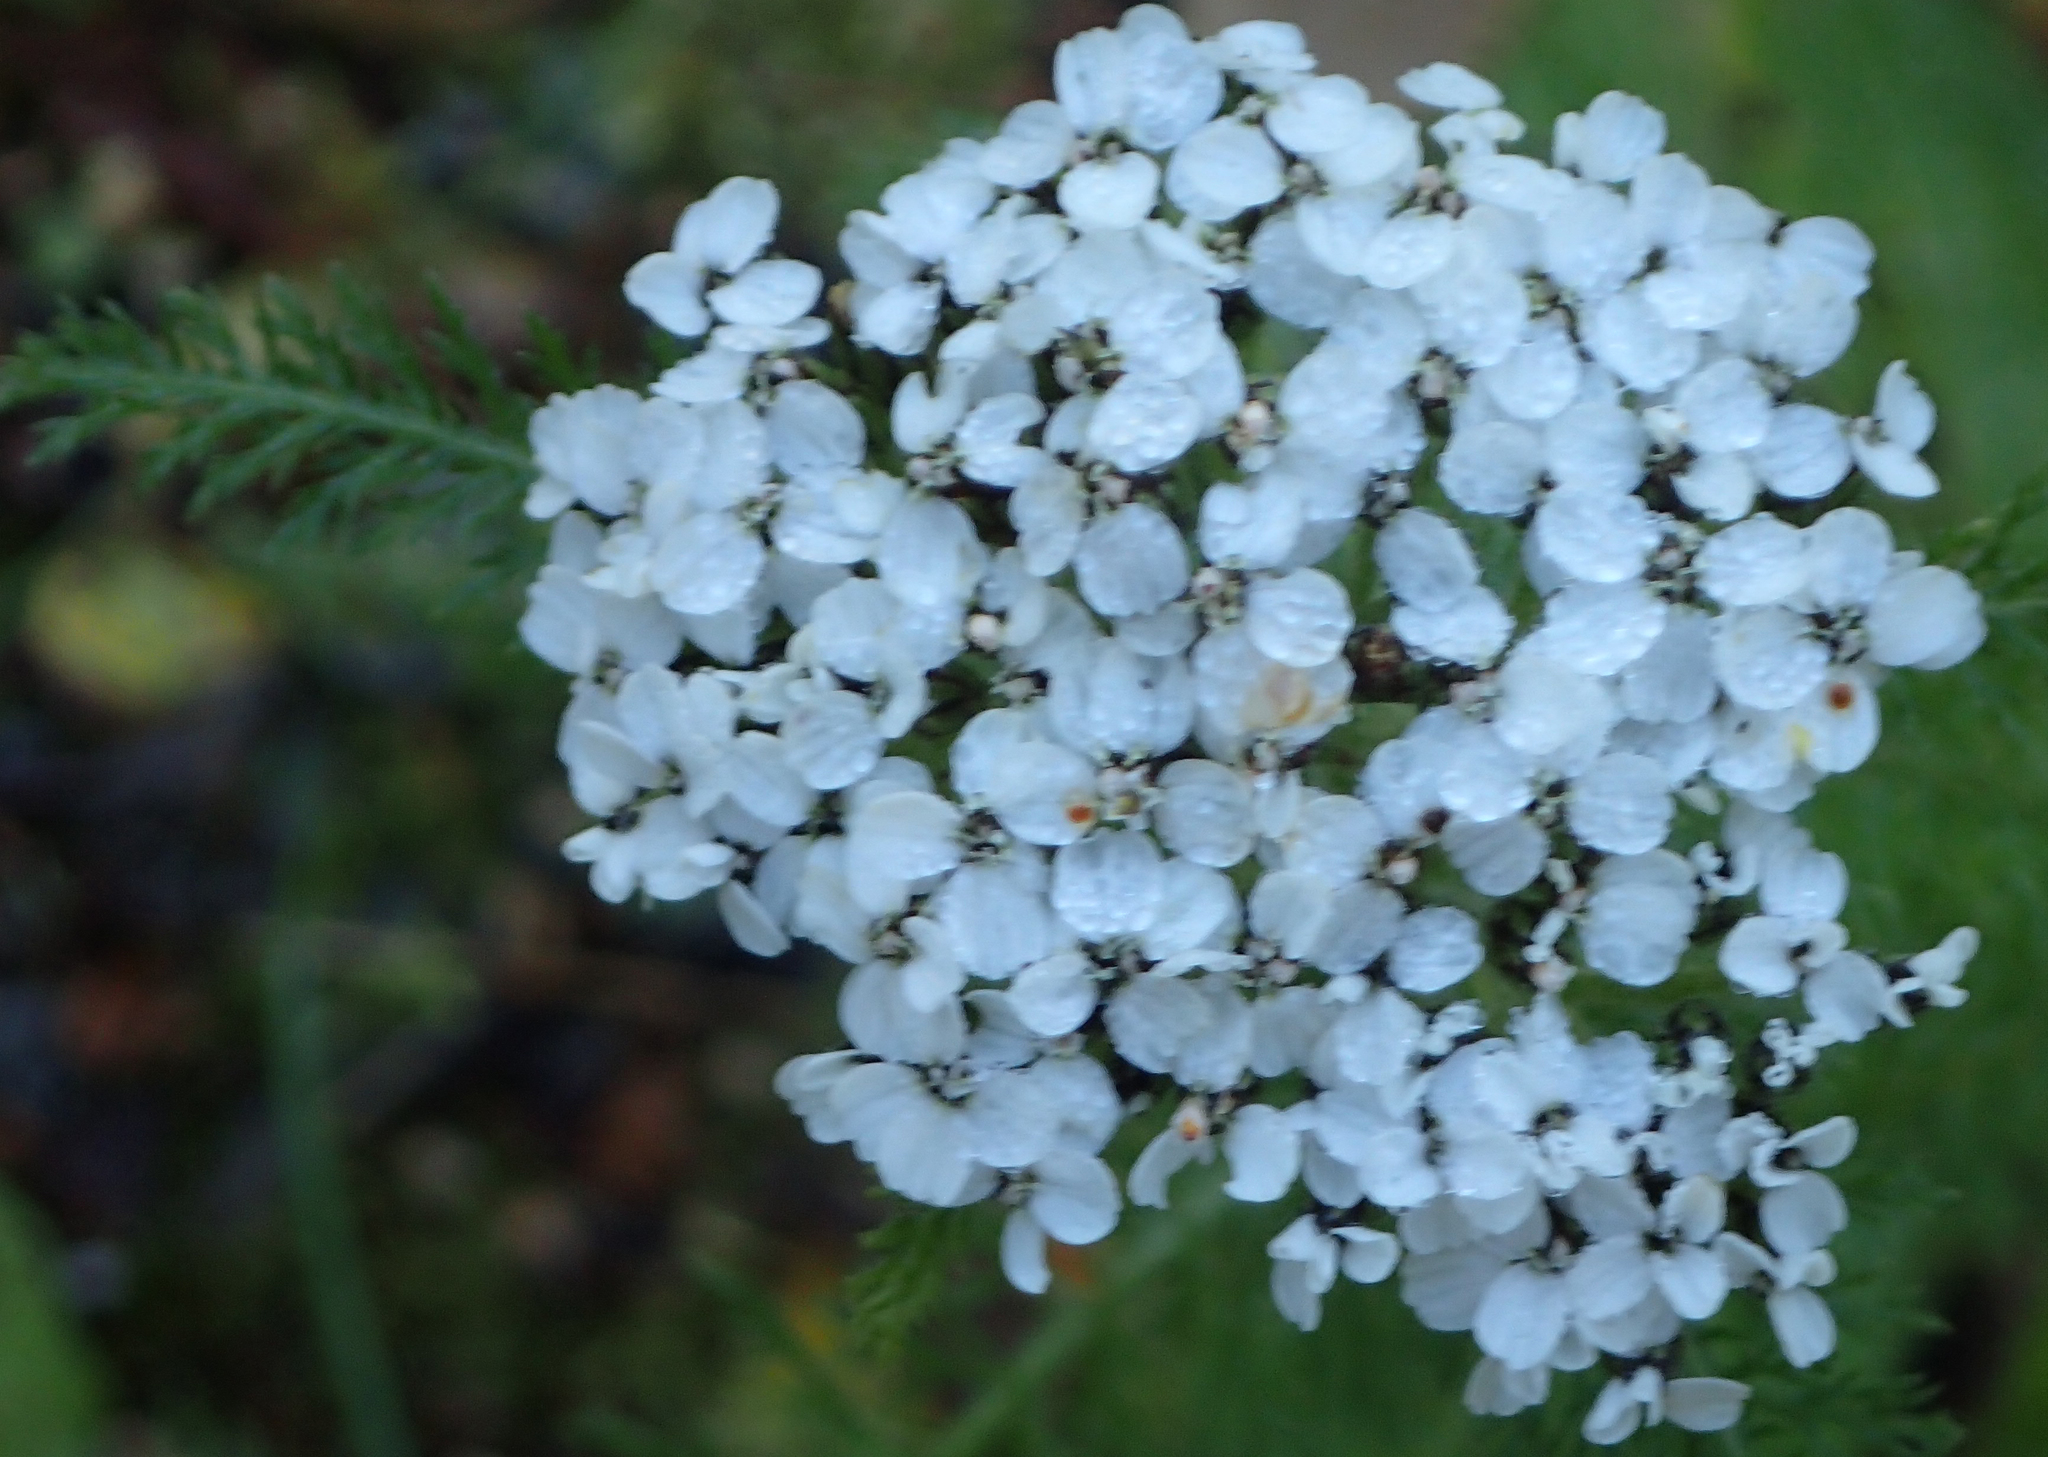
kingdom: Plantae
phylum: Tracheophyta
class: Magnoliopsida
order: Asterales
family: Asteraceae
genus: Achillea
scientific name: Achillea millefolium
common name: Yarrow
